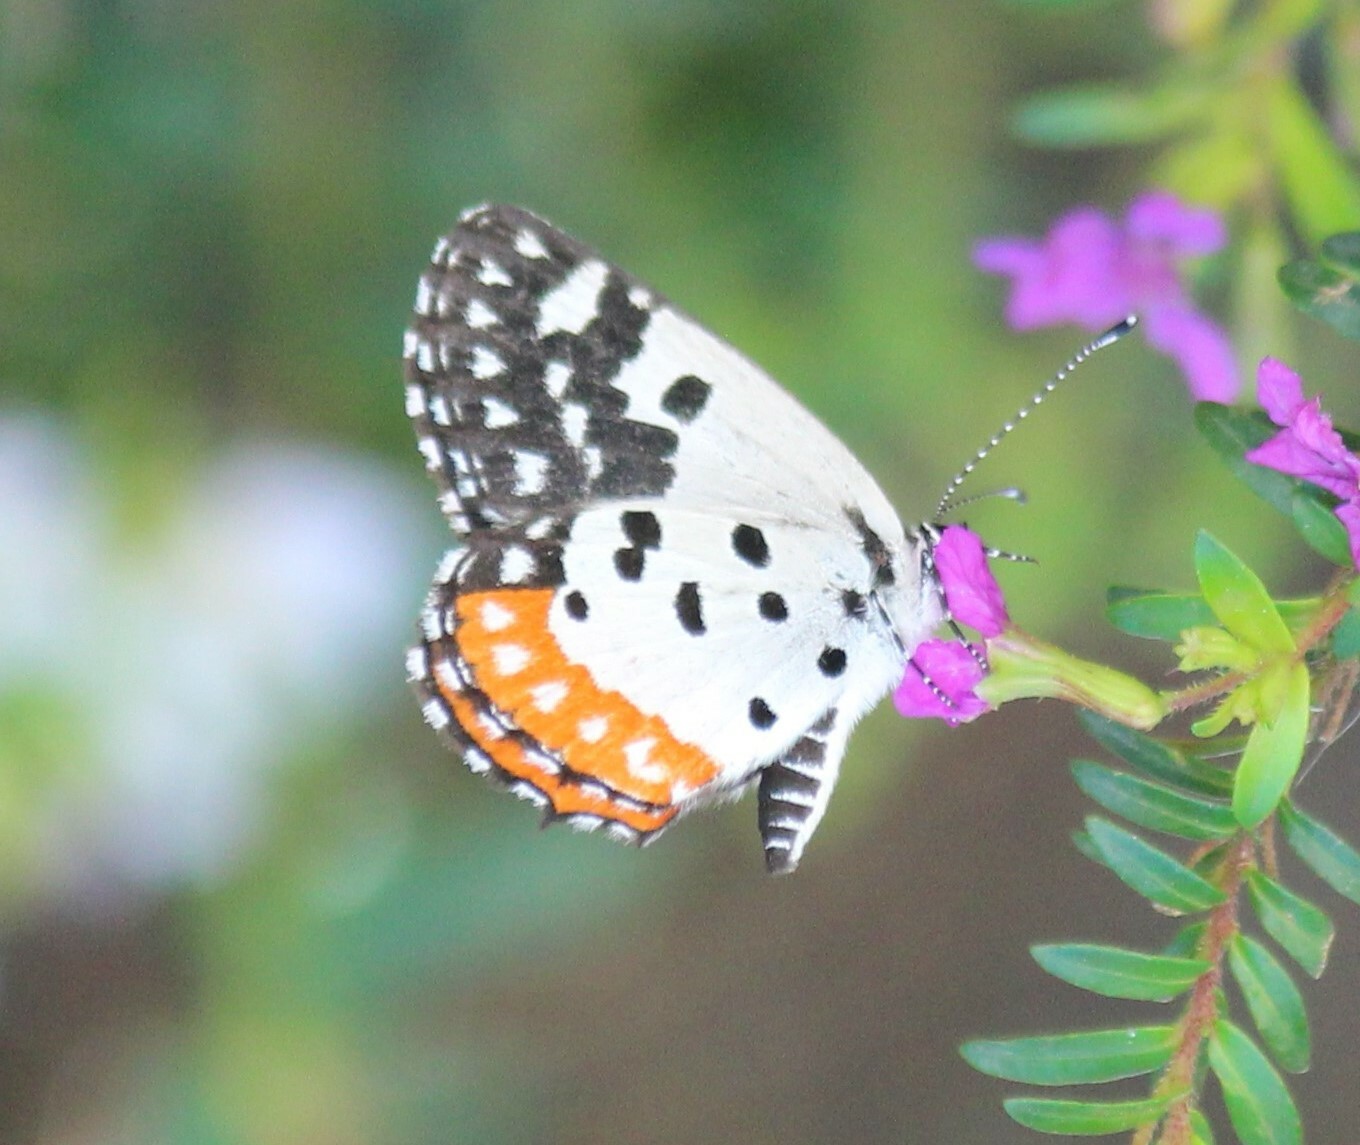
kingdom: Animalia
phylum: Arthropoda
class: Insecta
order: Lepidoptera
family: Lycaenidae
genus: Talicada
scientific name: Talicada nyseus
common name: Red pierrot
